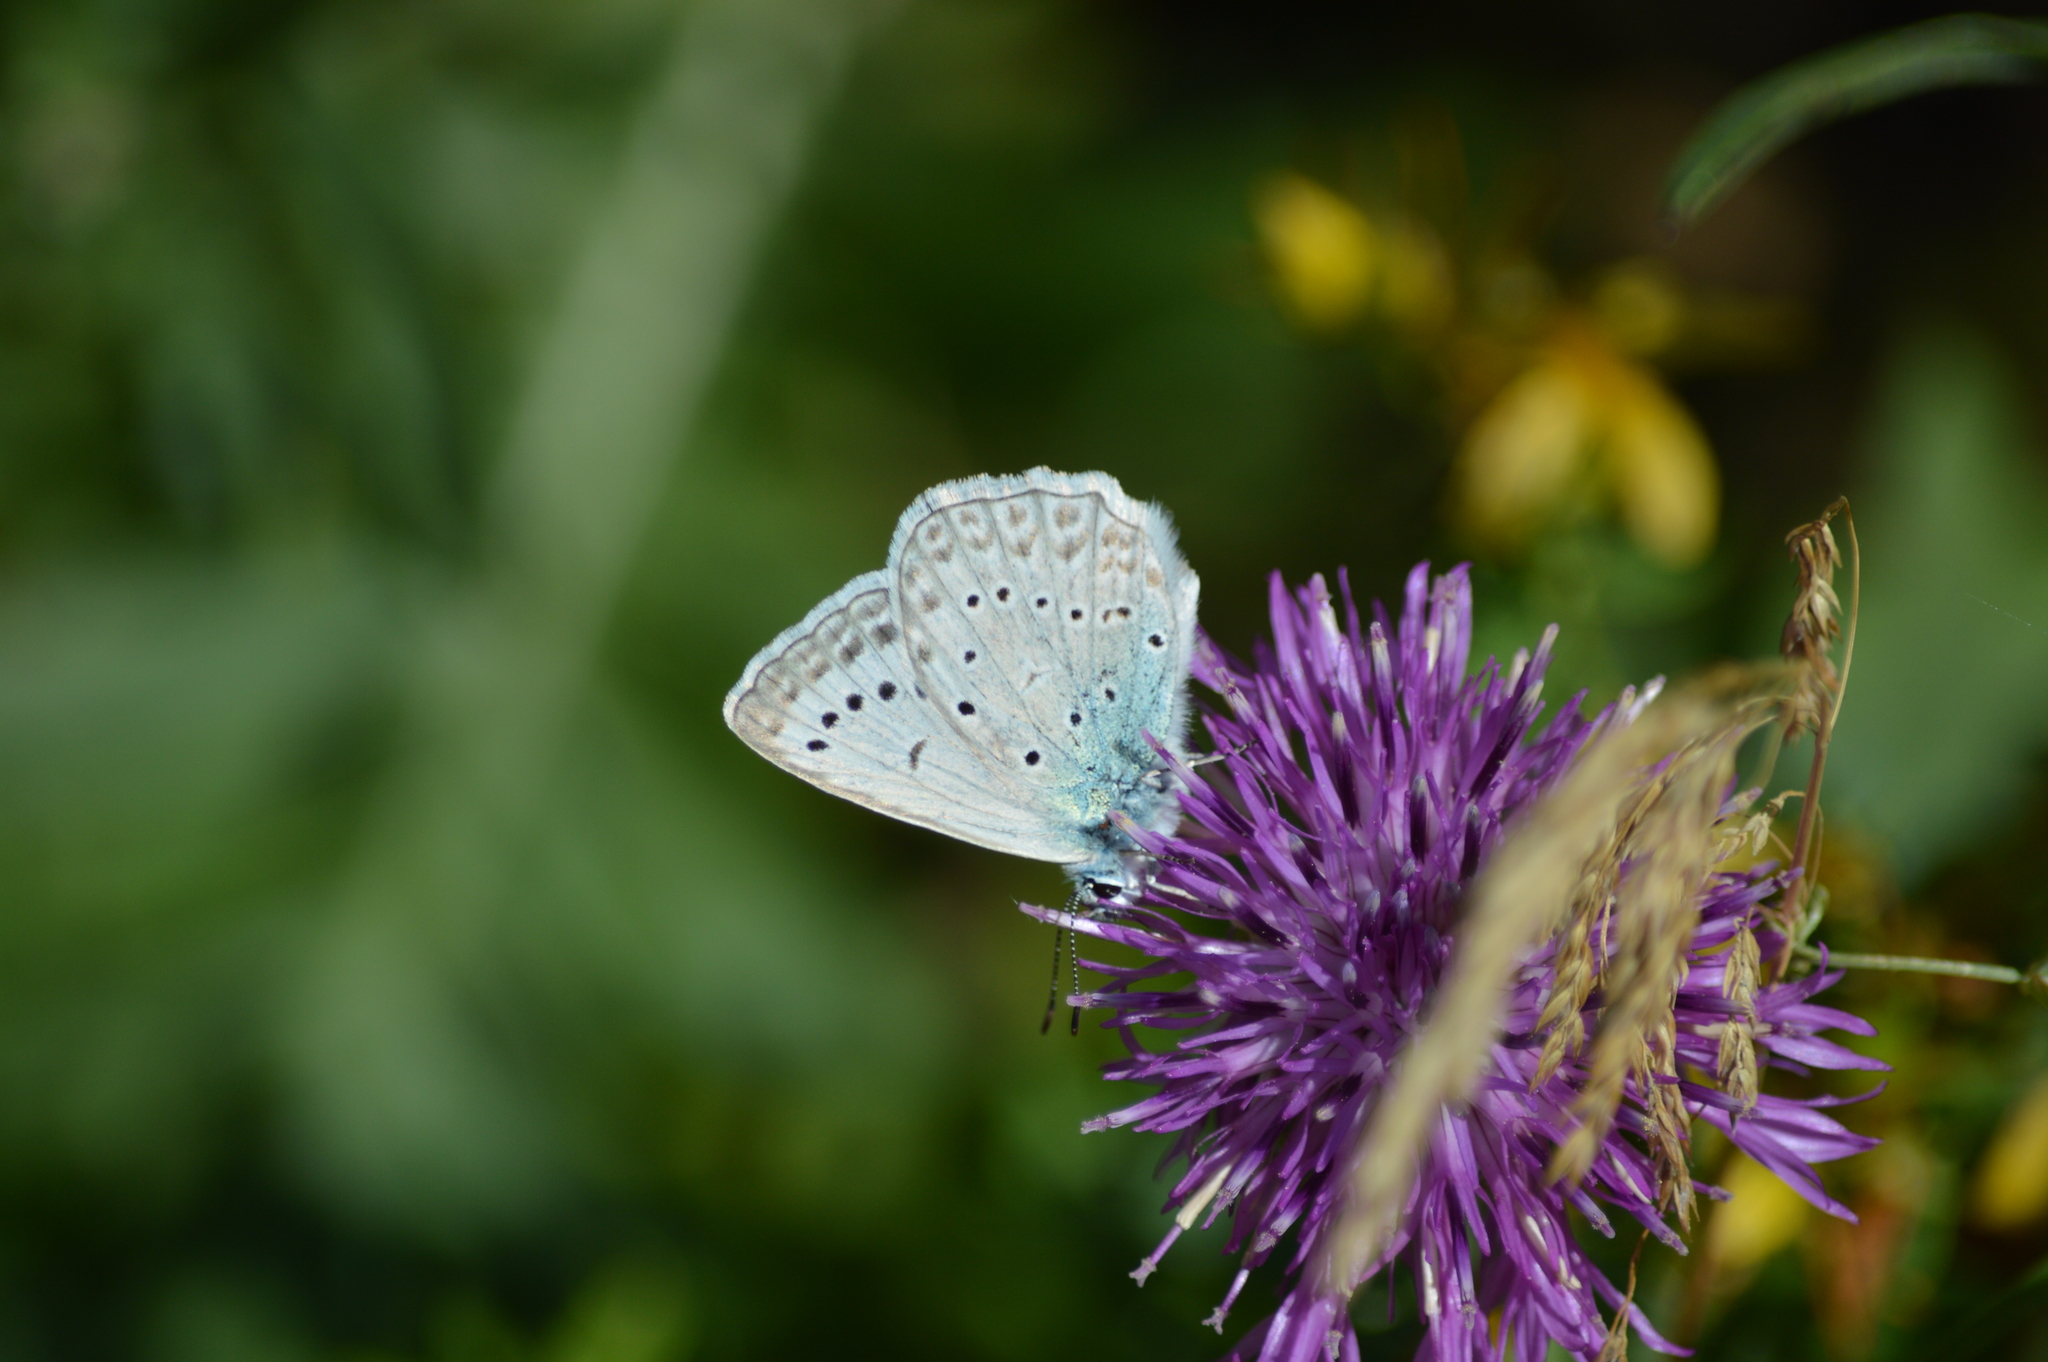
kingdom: Animalia
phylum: Arthropoda
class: Insecta
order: Lepidoptera
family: Lycaenidae
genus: Polyommatus
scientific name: Polyommatus daphnis
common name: Meleager's blue
